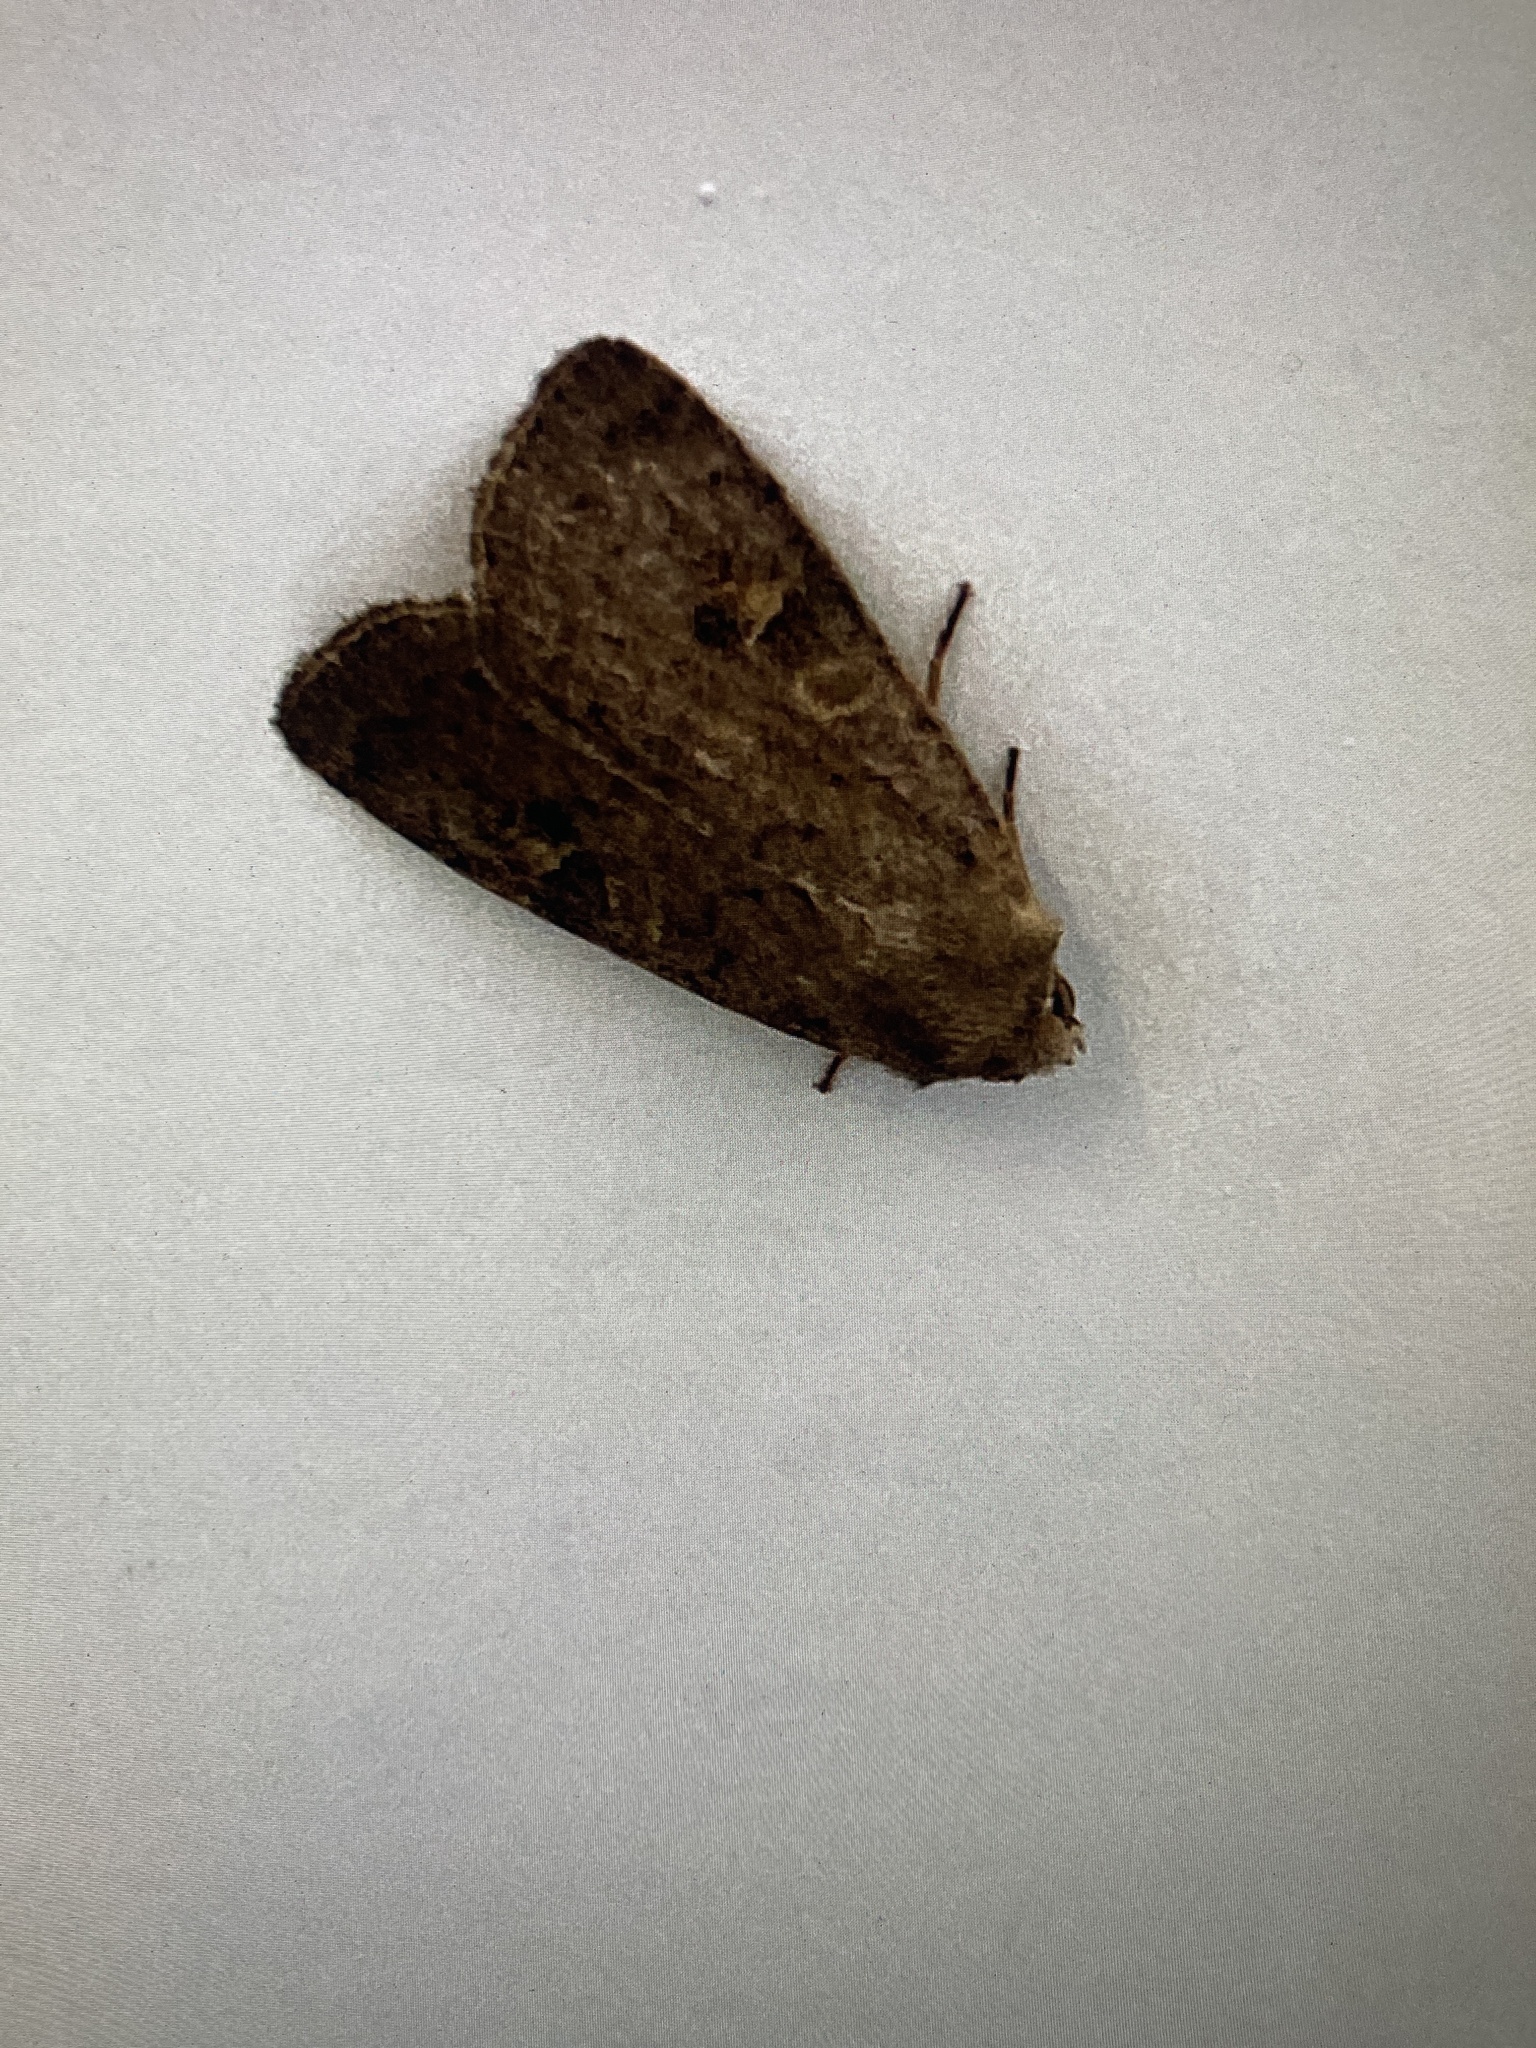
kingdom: Animalia
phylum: Arthropoda
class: Insecta
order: Lepidoptera
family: Noctuidae
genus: Xestia
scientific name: Xestia xanthographa
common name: Square-spot rustic
